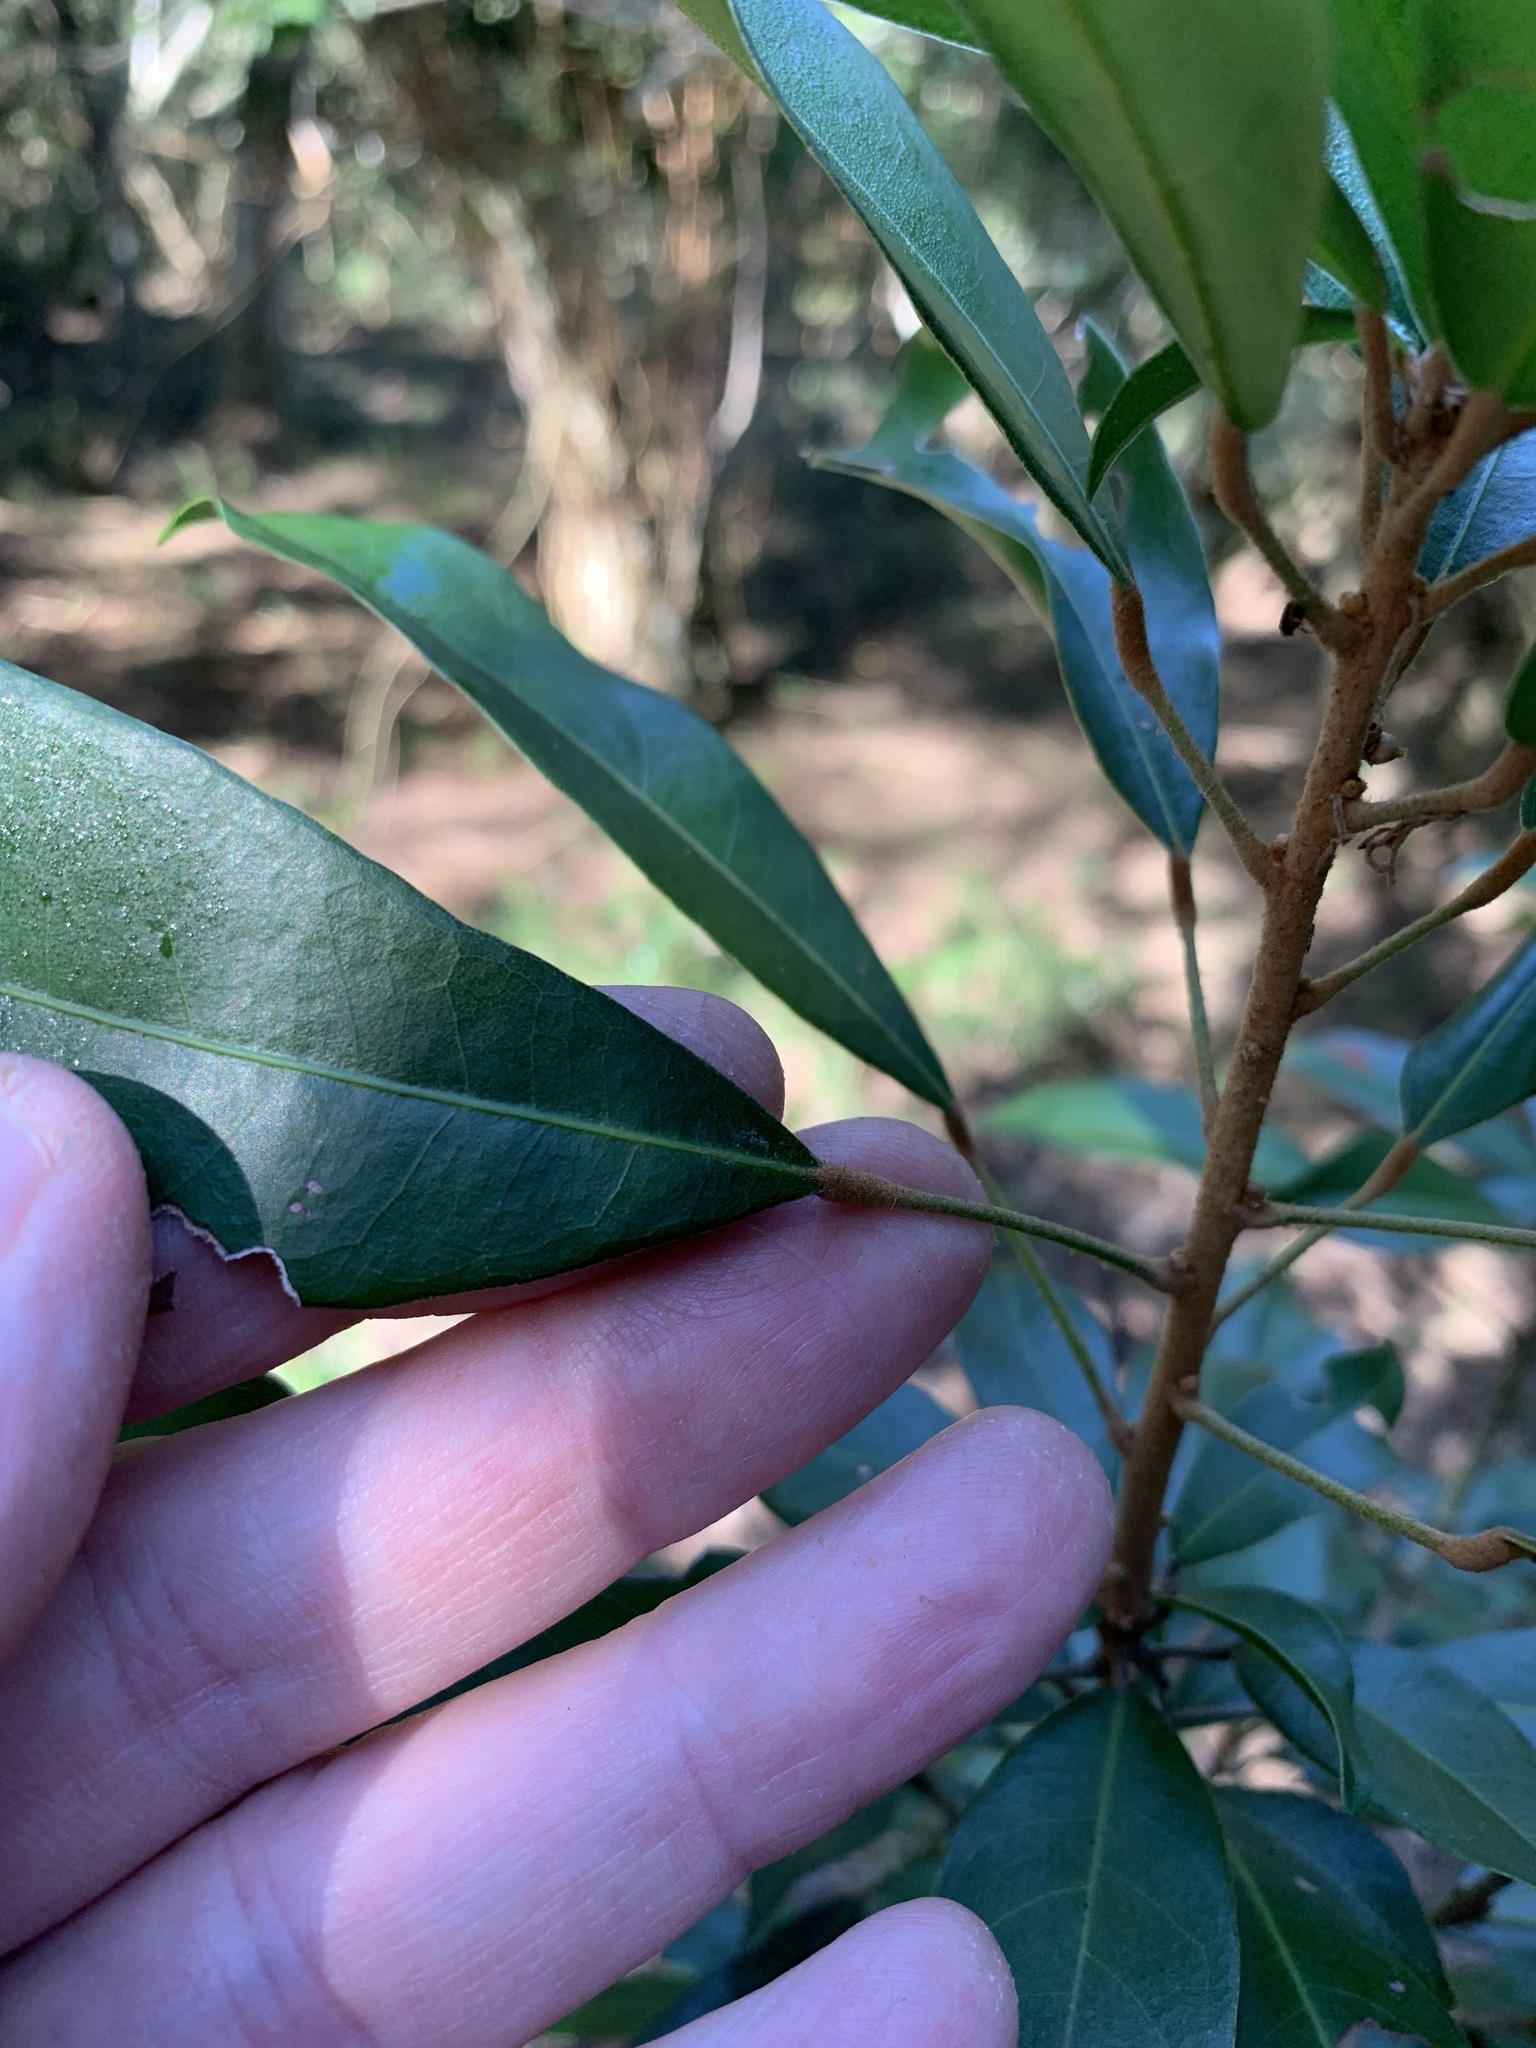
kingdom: Plantae
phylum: Tracheophyta
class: Magnoliopsida
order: Malvales
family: Malvaceae
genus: Cola
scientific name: Cola greenwayi
